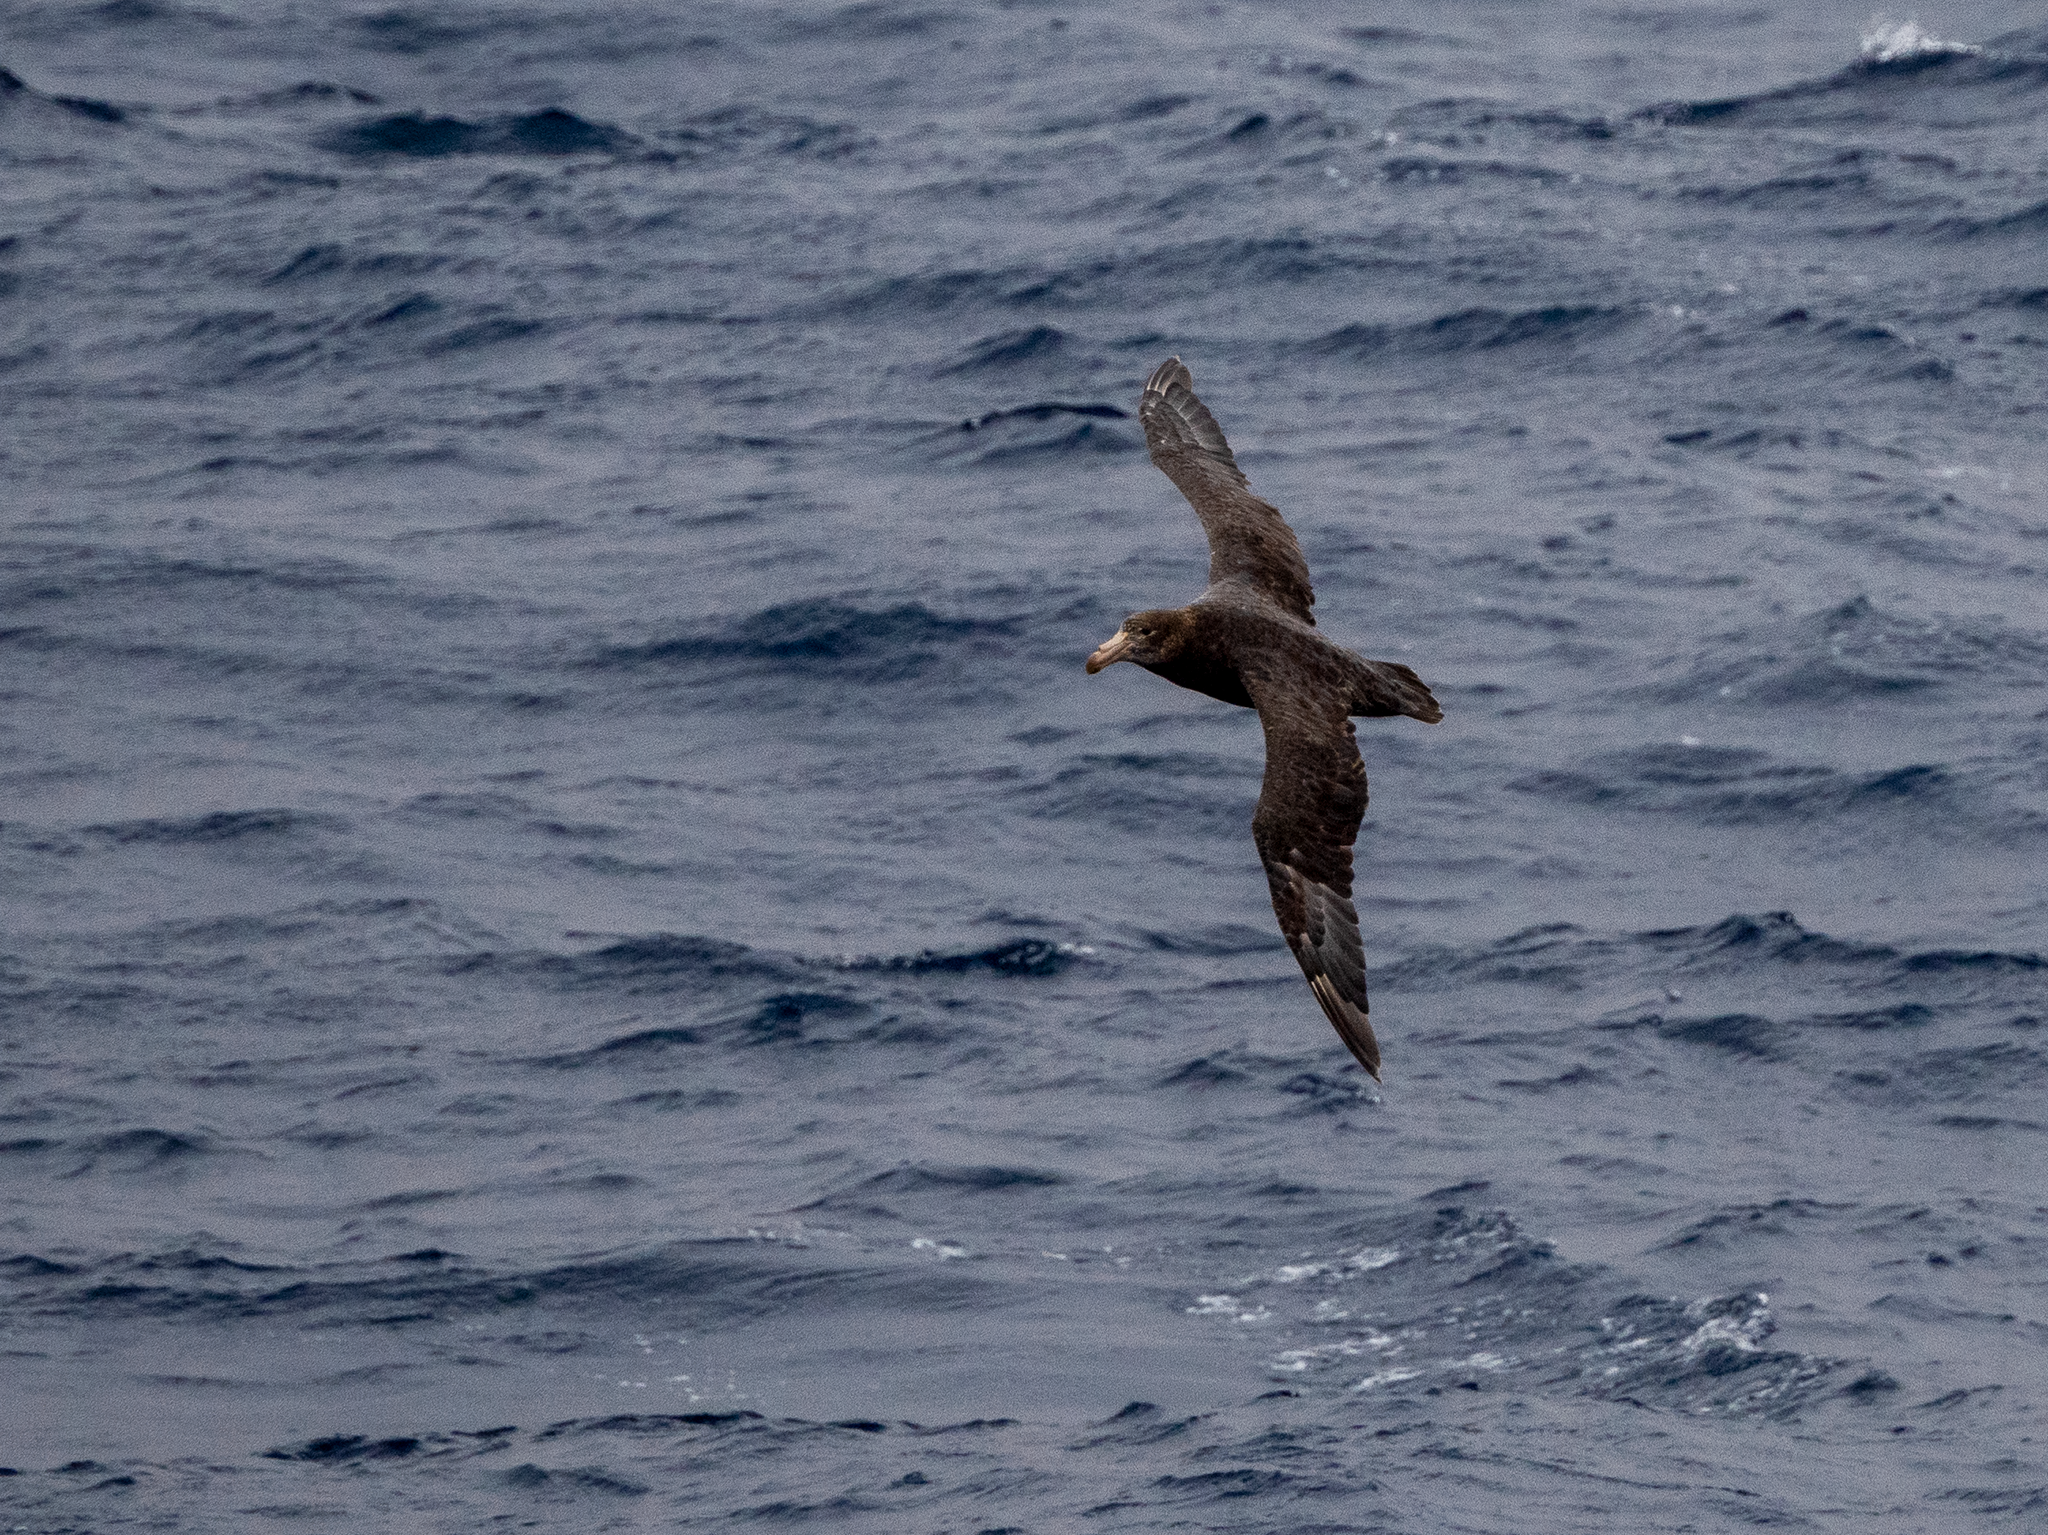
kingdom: Animalia
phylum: Chordata
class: Aves
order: Procellariiformes
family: Procellariidae
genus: Macronectes
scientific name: Macronectes halli
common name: Northern giant petrel
